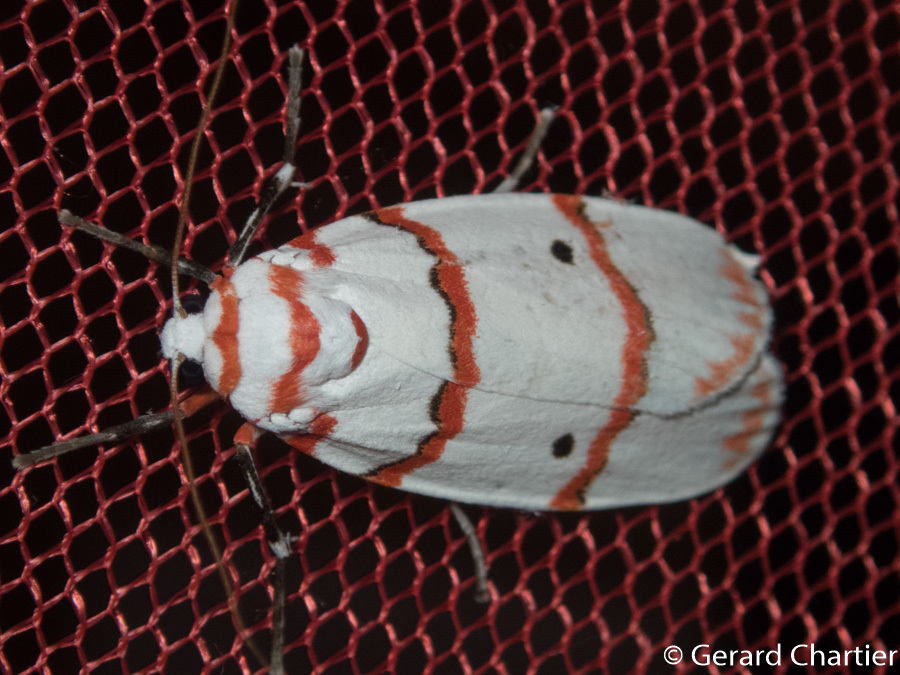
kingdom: Animalia
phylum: Arthropoda
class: Insecta
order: Lepidoptera
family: Erebidae
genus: Cyana
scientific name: Cyana perornata
